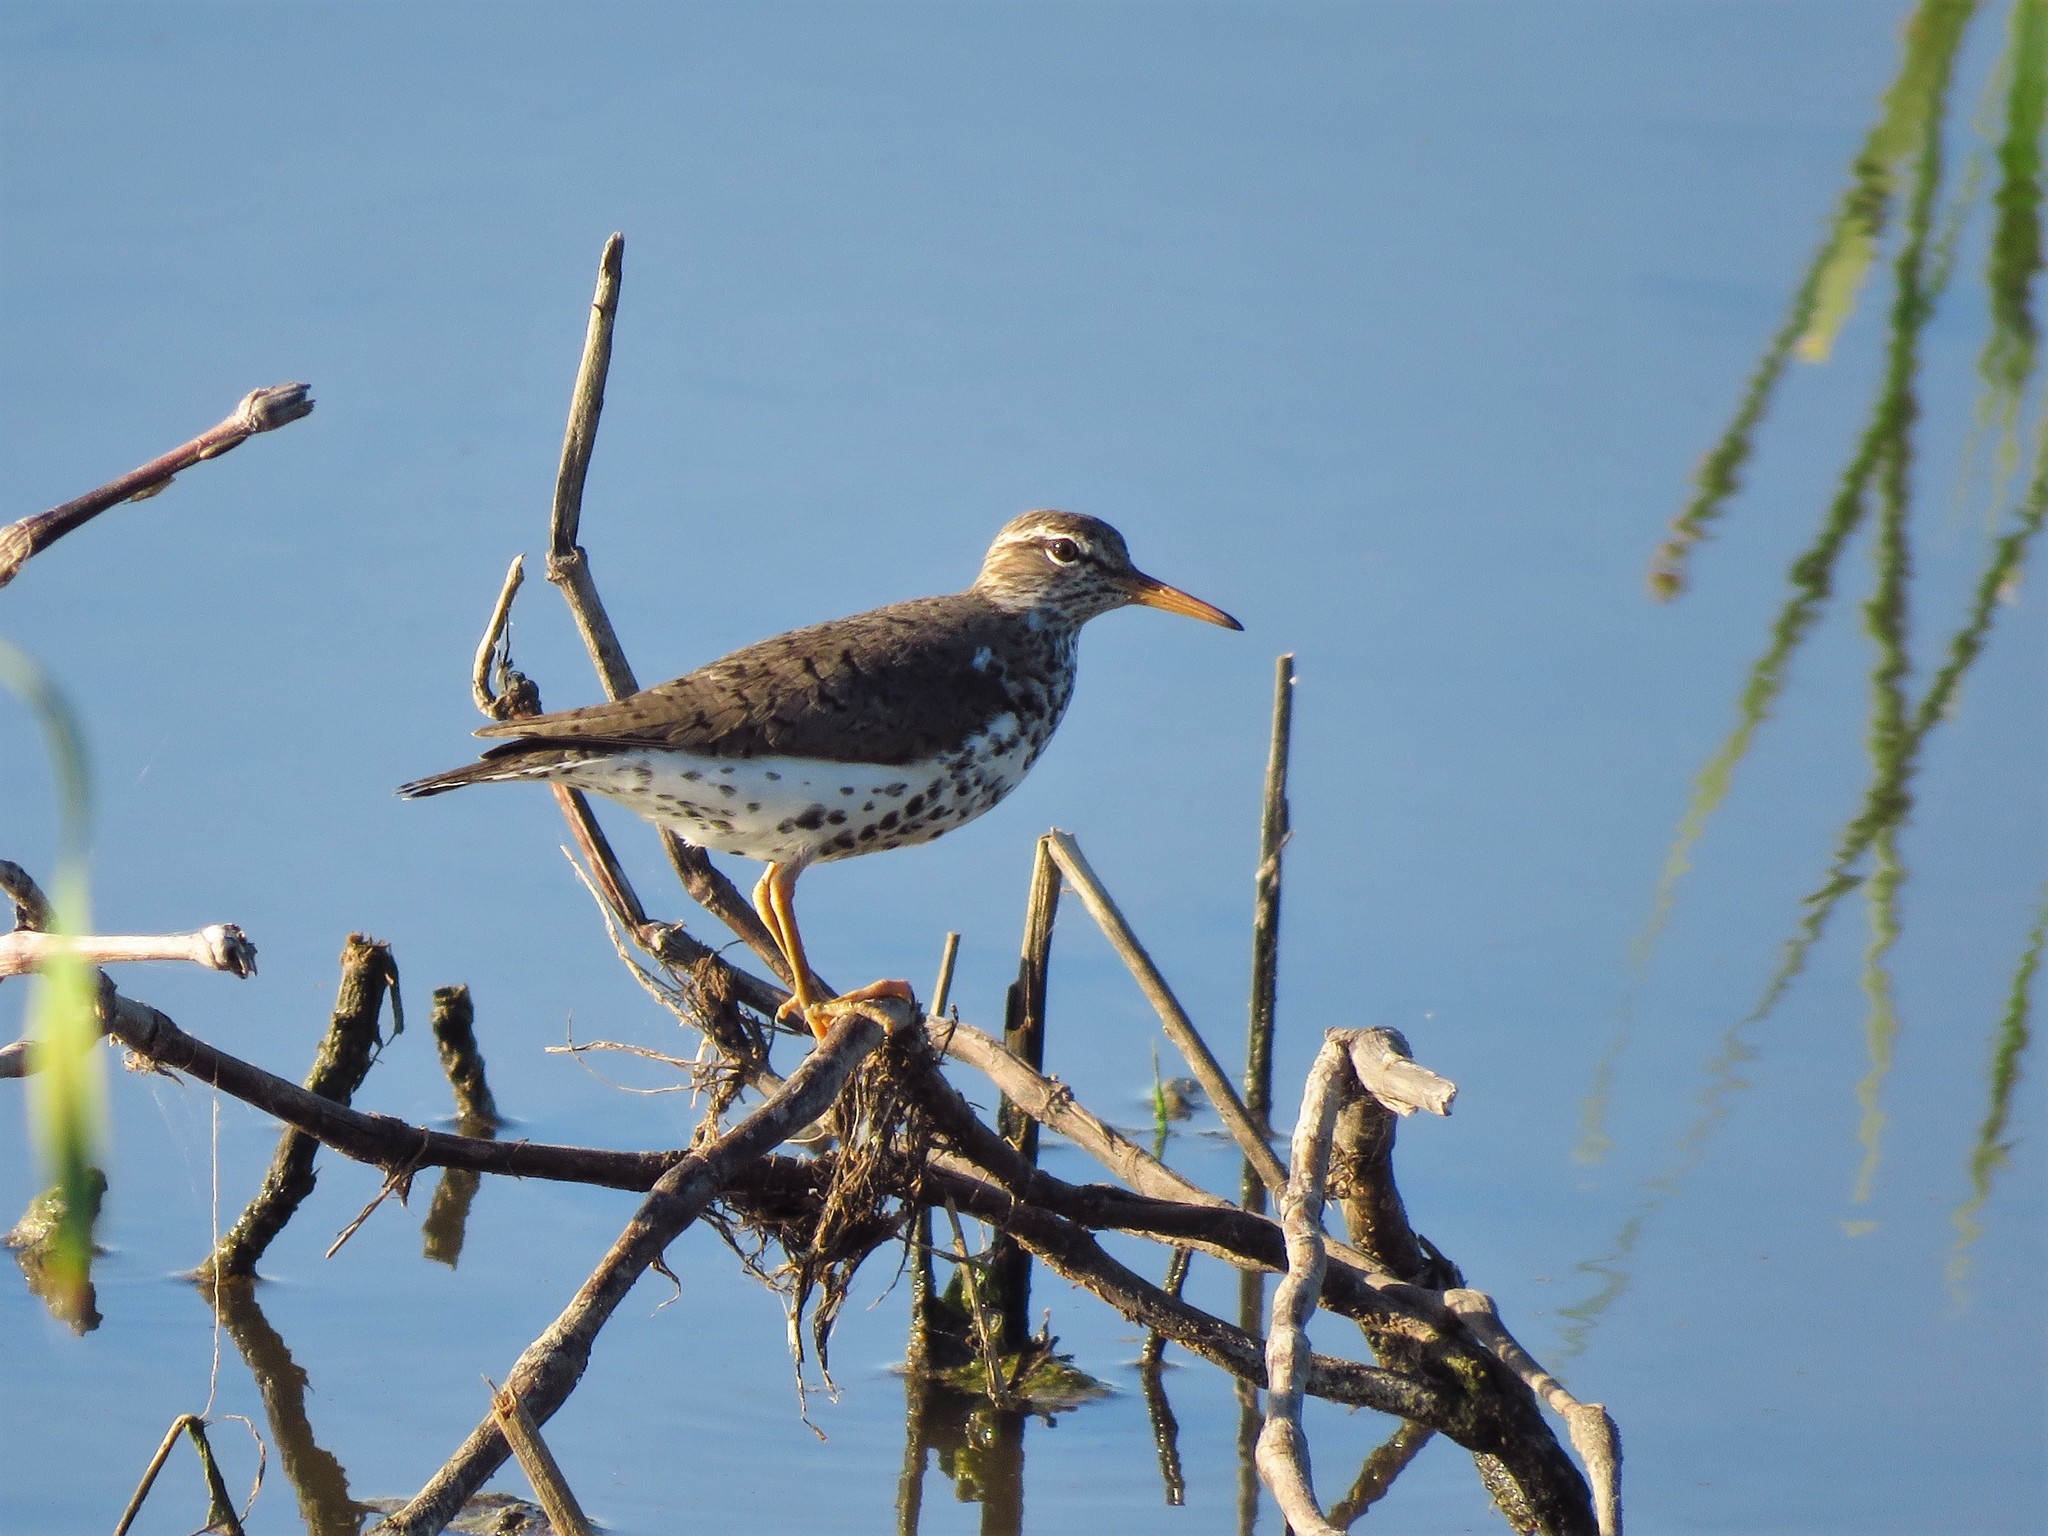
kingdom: Animalia
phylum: Chordata
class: Aves
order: Charadriiformes
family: Scolopacidae
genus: Actitis
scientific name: Actitis macularius
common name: Spotted sandpiper
